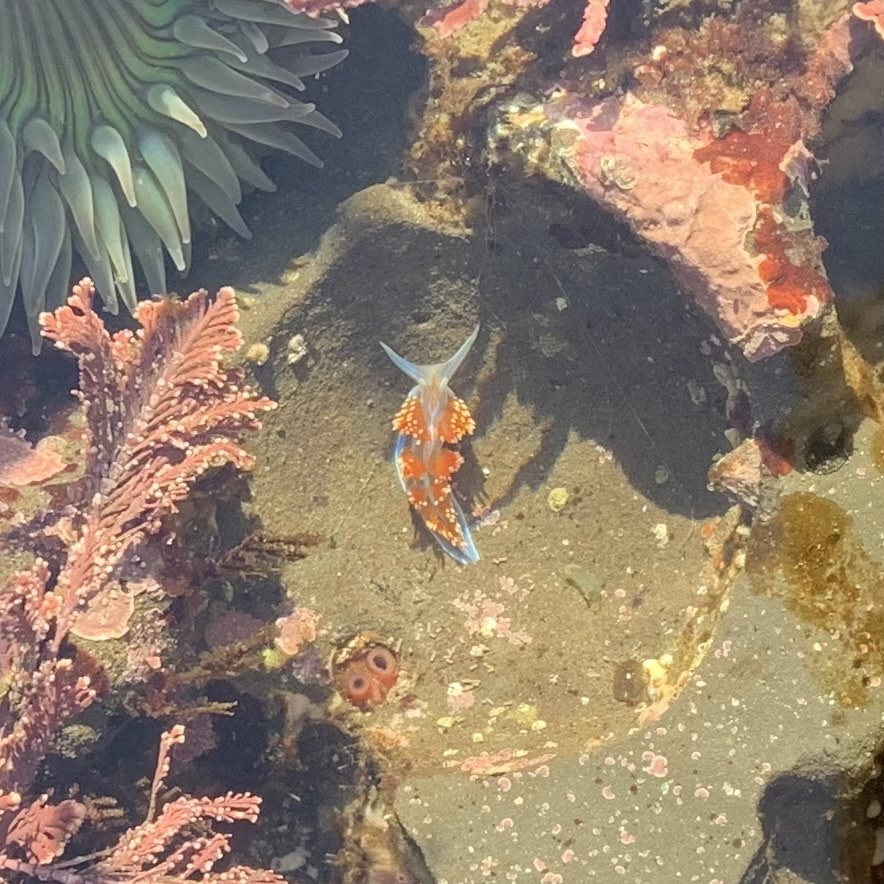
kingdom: Animalia
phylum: Mollusca
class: Gastropoda
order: Nudibranchia
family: Myrrhinidae
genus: Hermissenda
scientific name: Hermissenda opalescens
